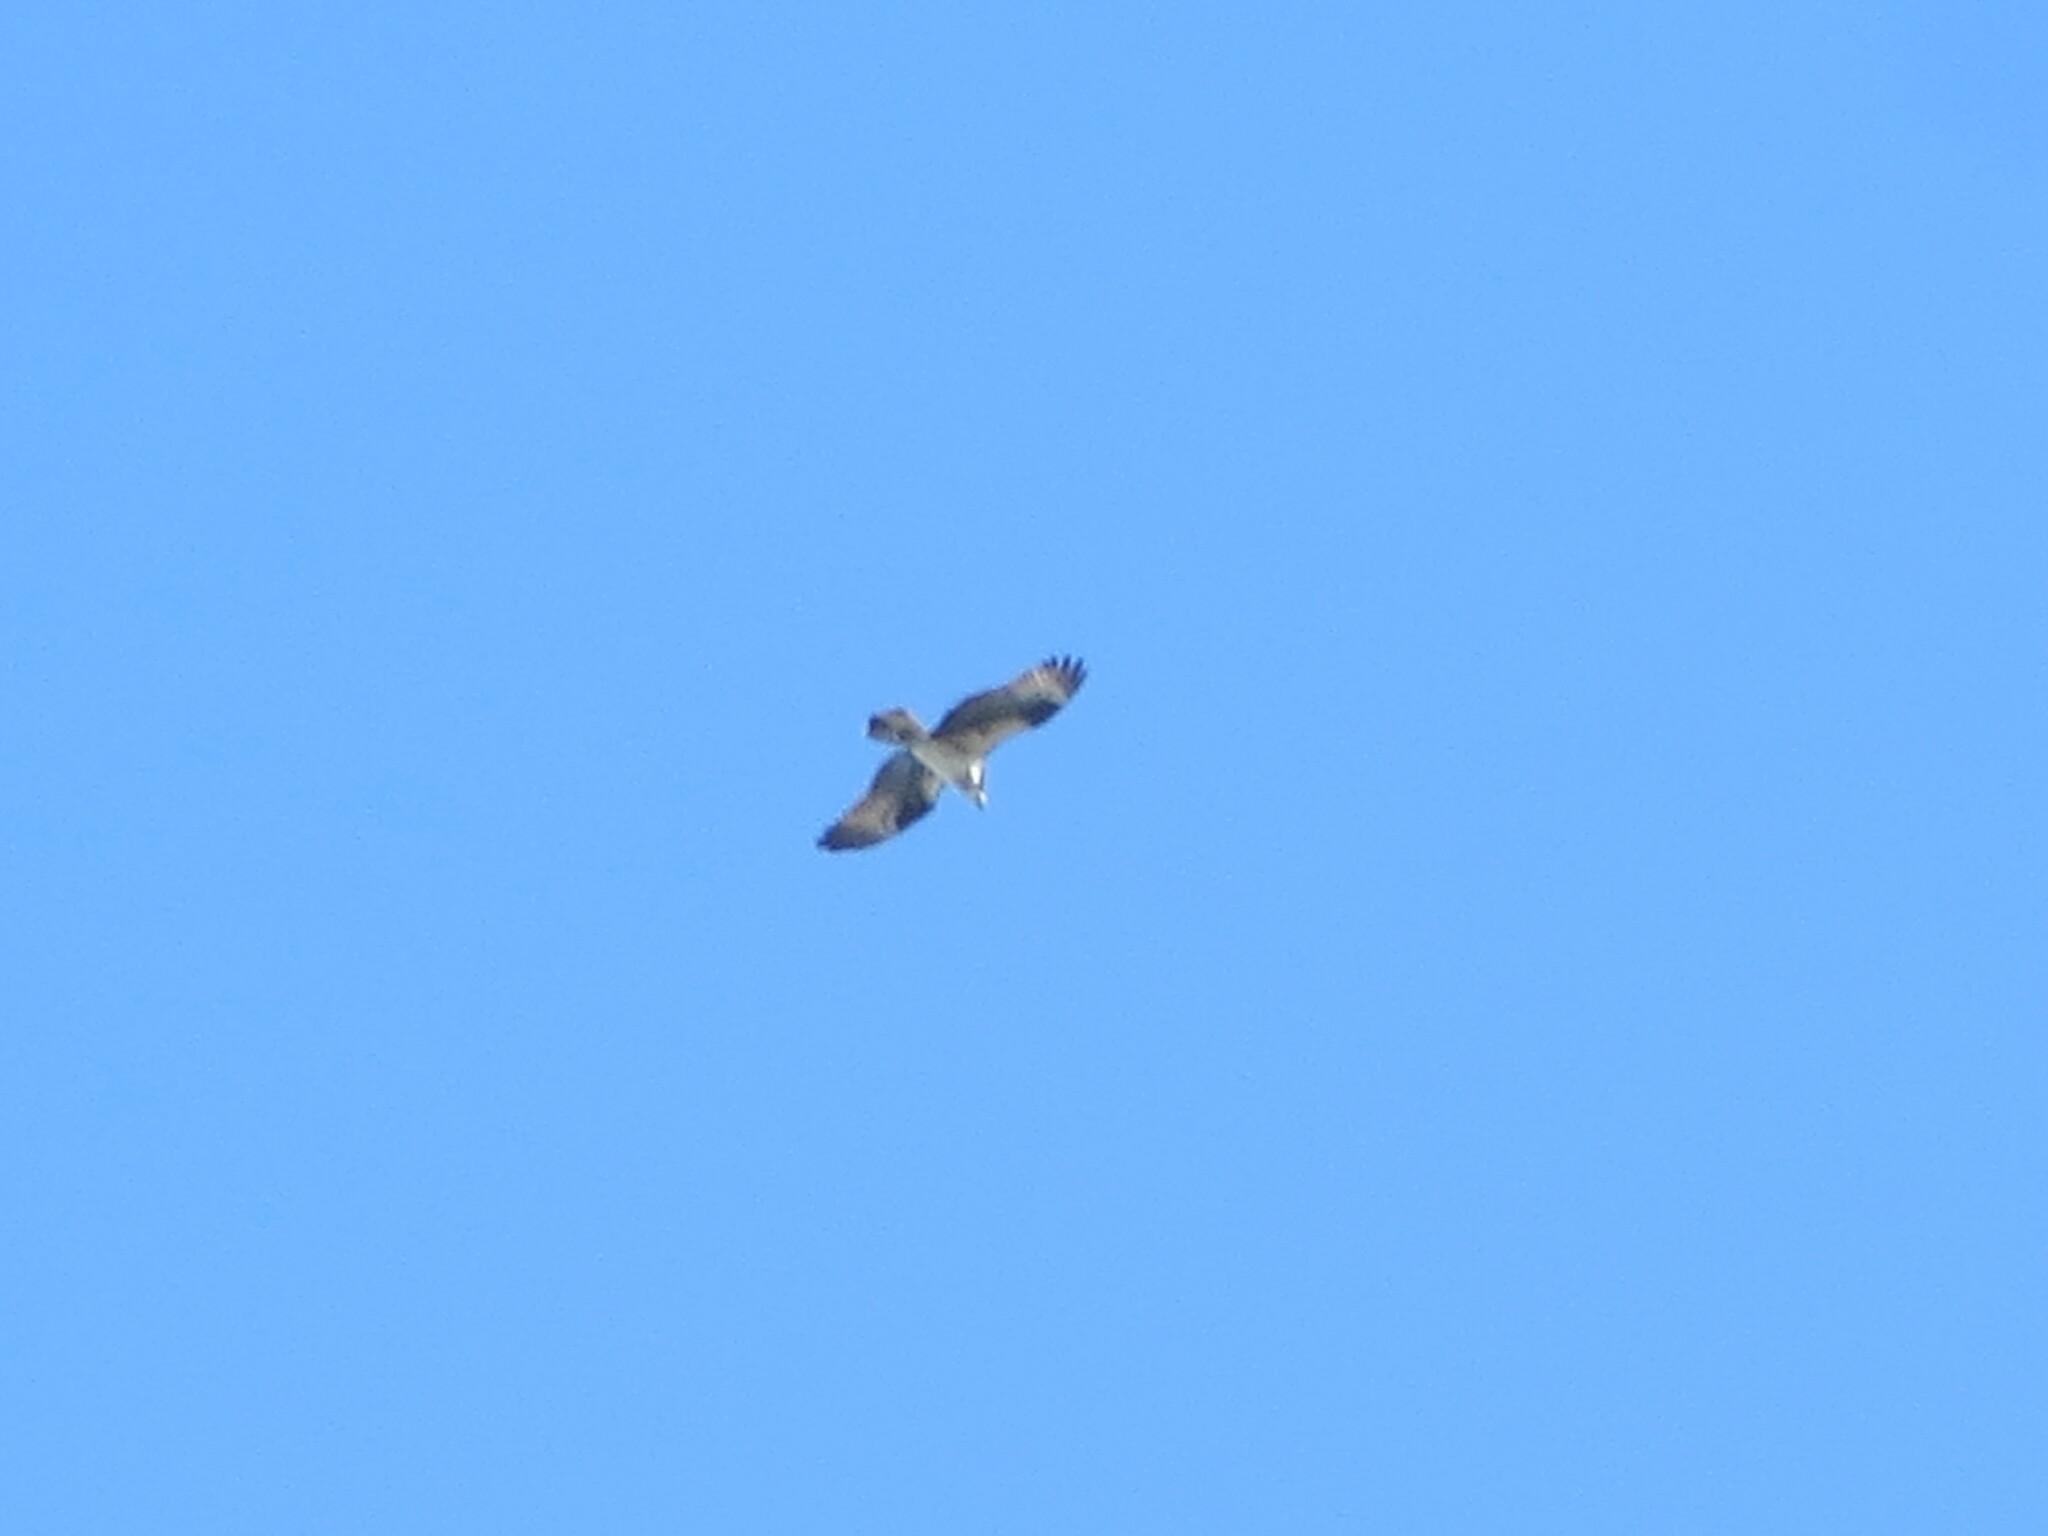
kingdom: Animalia
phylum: Chordata
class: Aves
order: Accipitriformes
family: Pandionidae
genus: Pandion
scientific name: Pandion haliaetus
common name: Osprey
